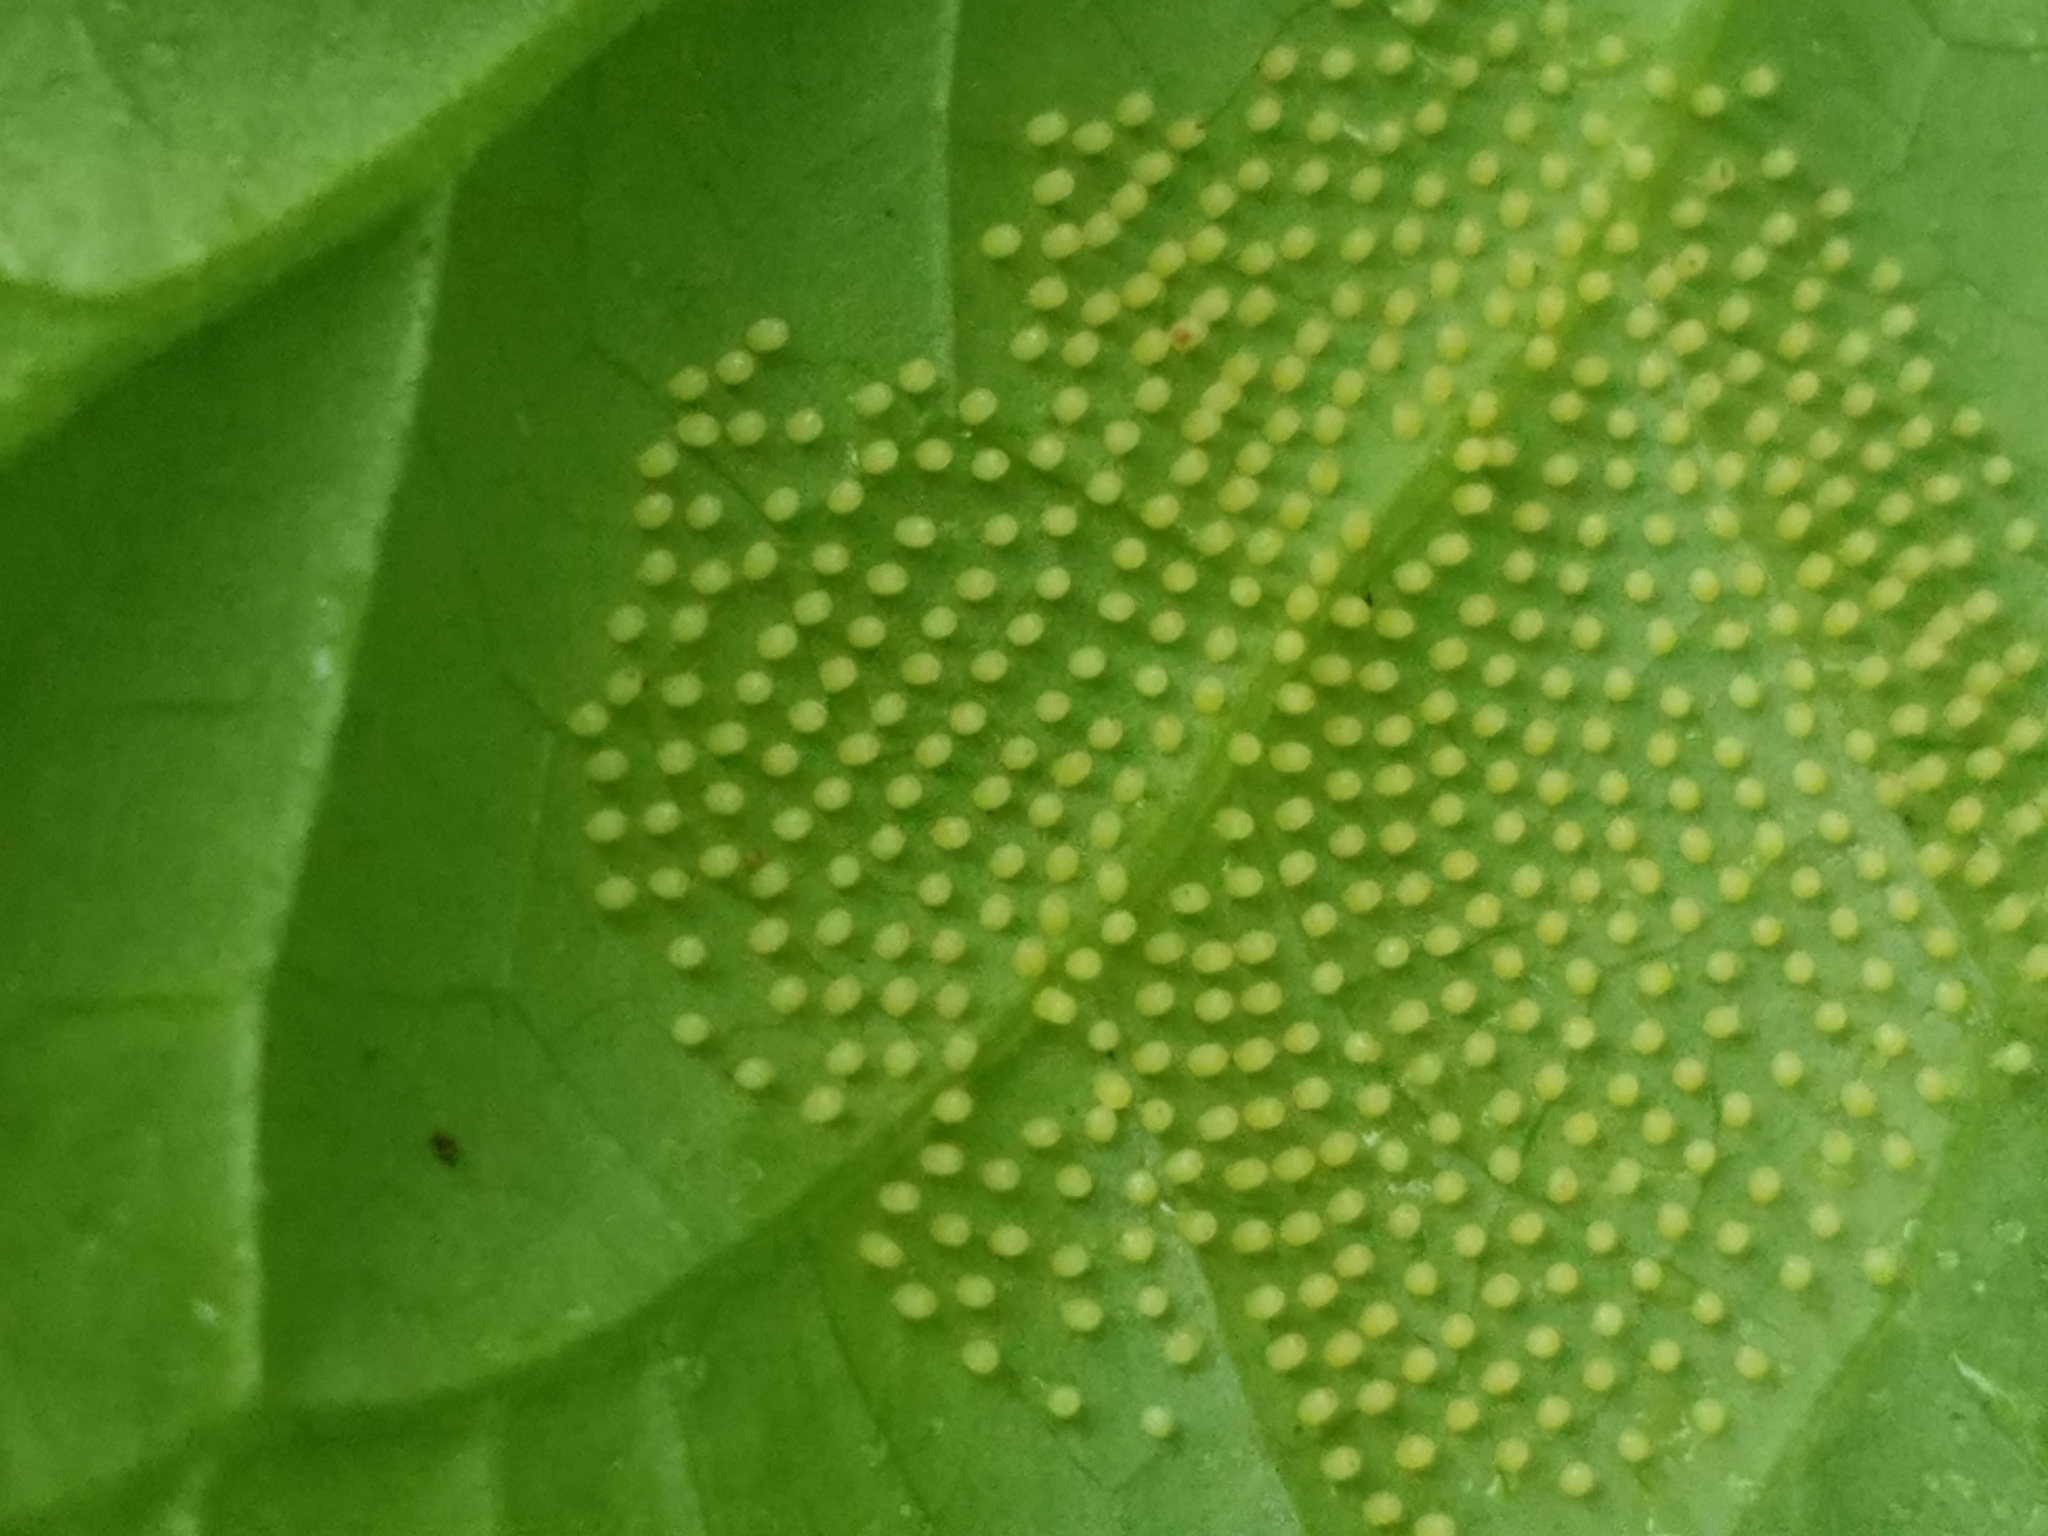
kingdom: Animalia
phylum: Arthropoda
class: Insecta
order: Lepidoptera
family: Nymphalidae
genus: Actinote
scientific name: Actinote anteas
